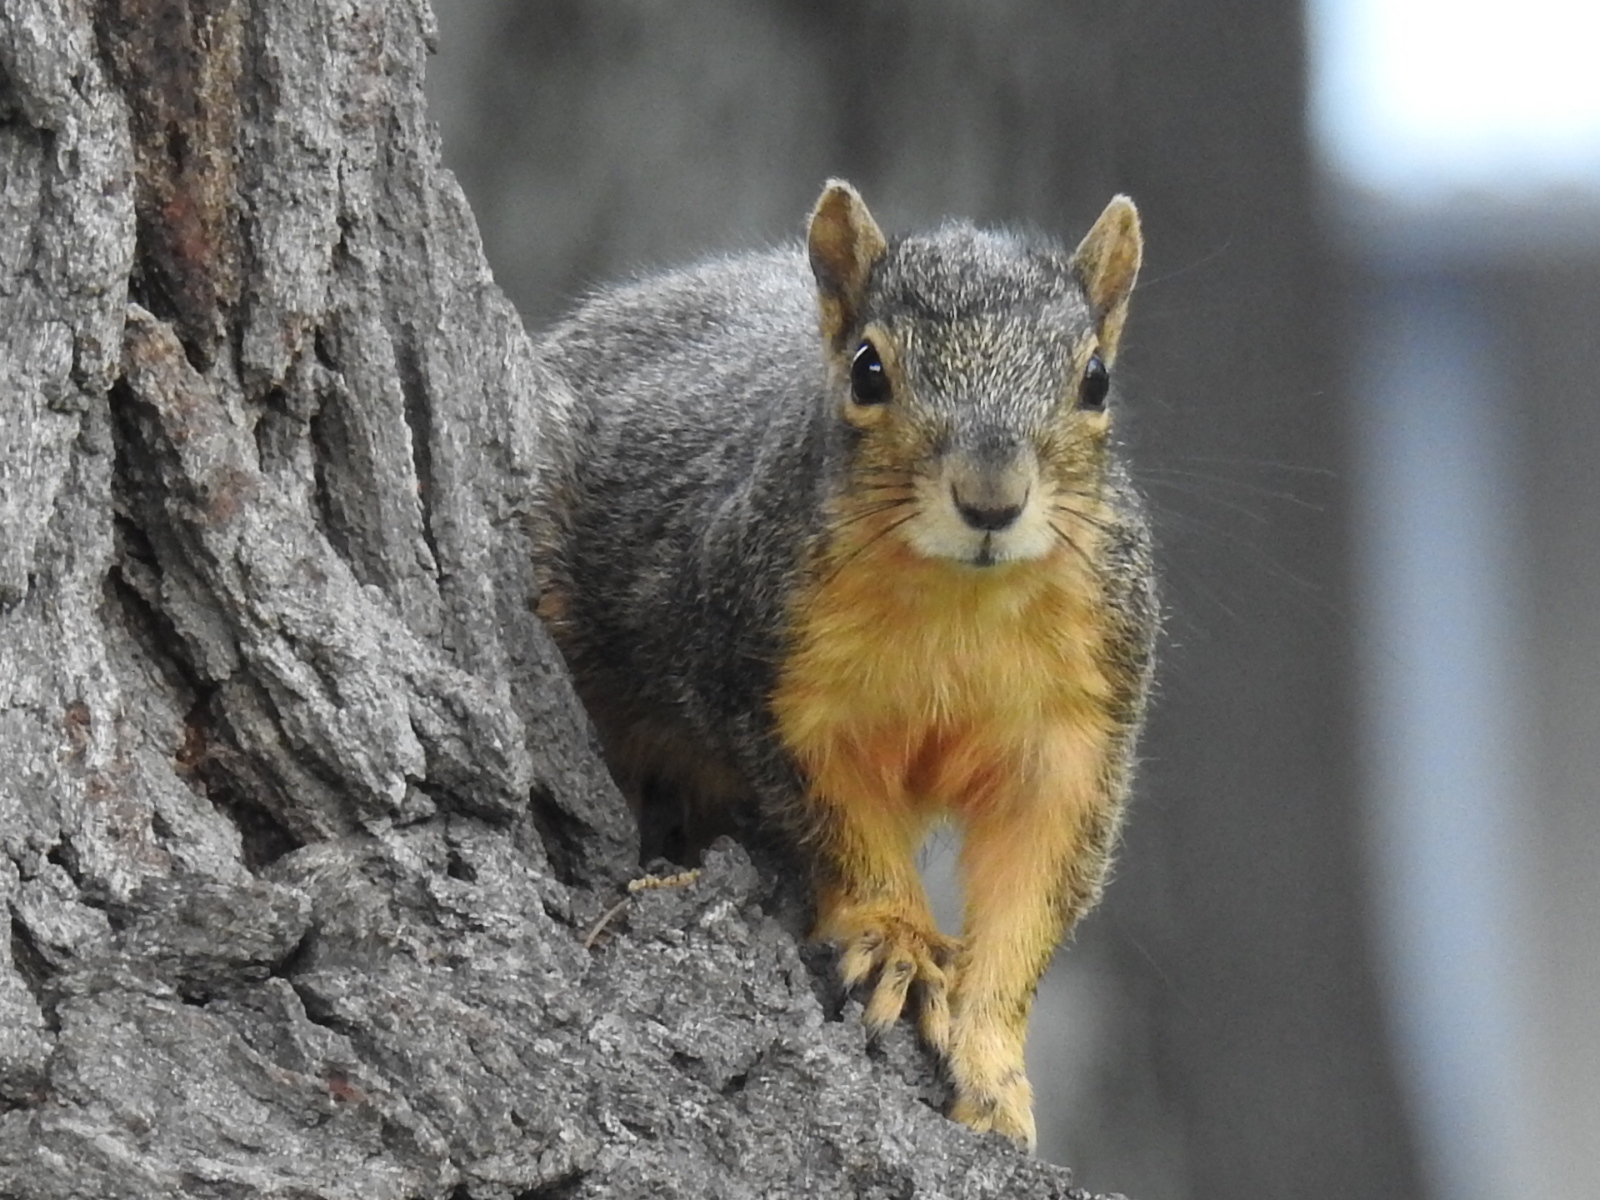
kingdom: Animalia
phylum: Chordata
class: Mammalia
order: Rodentia
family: Sciuridae
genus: Sciurus
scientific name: Sciurus niger
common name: Fox squirrel
